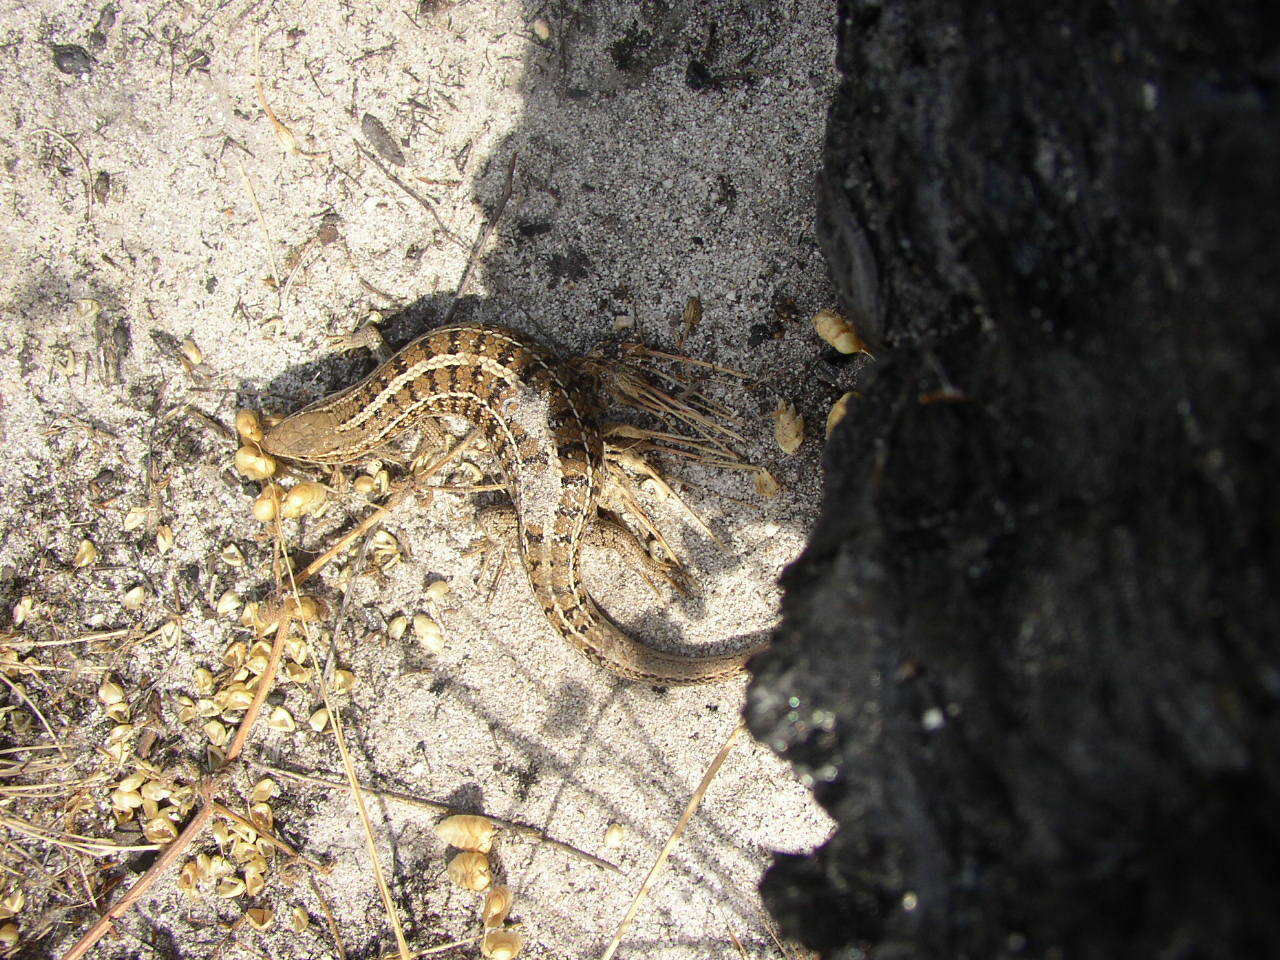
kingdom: Animalia
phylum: Chordata
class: Squamata
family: Scincidae
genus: Trachylepis
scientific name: Trachylepis capensis
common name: Cape skink
